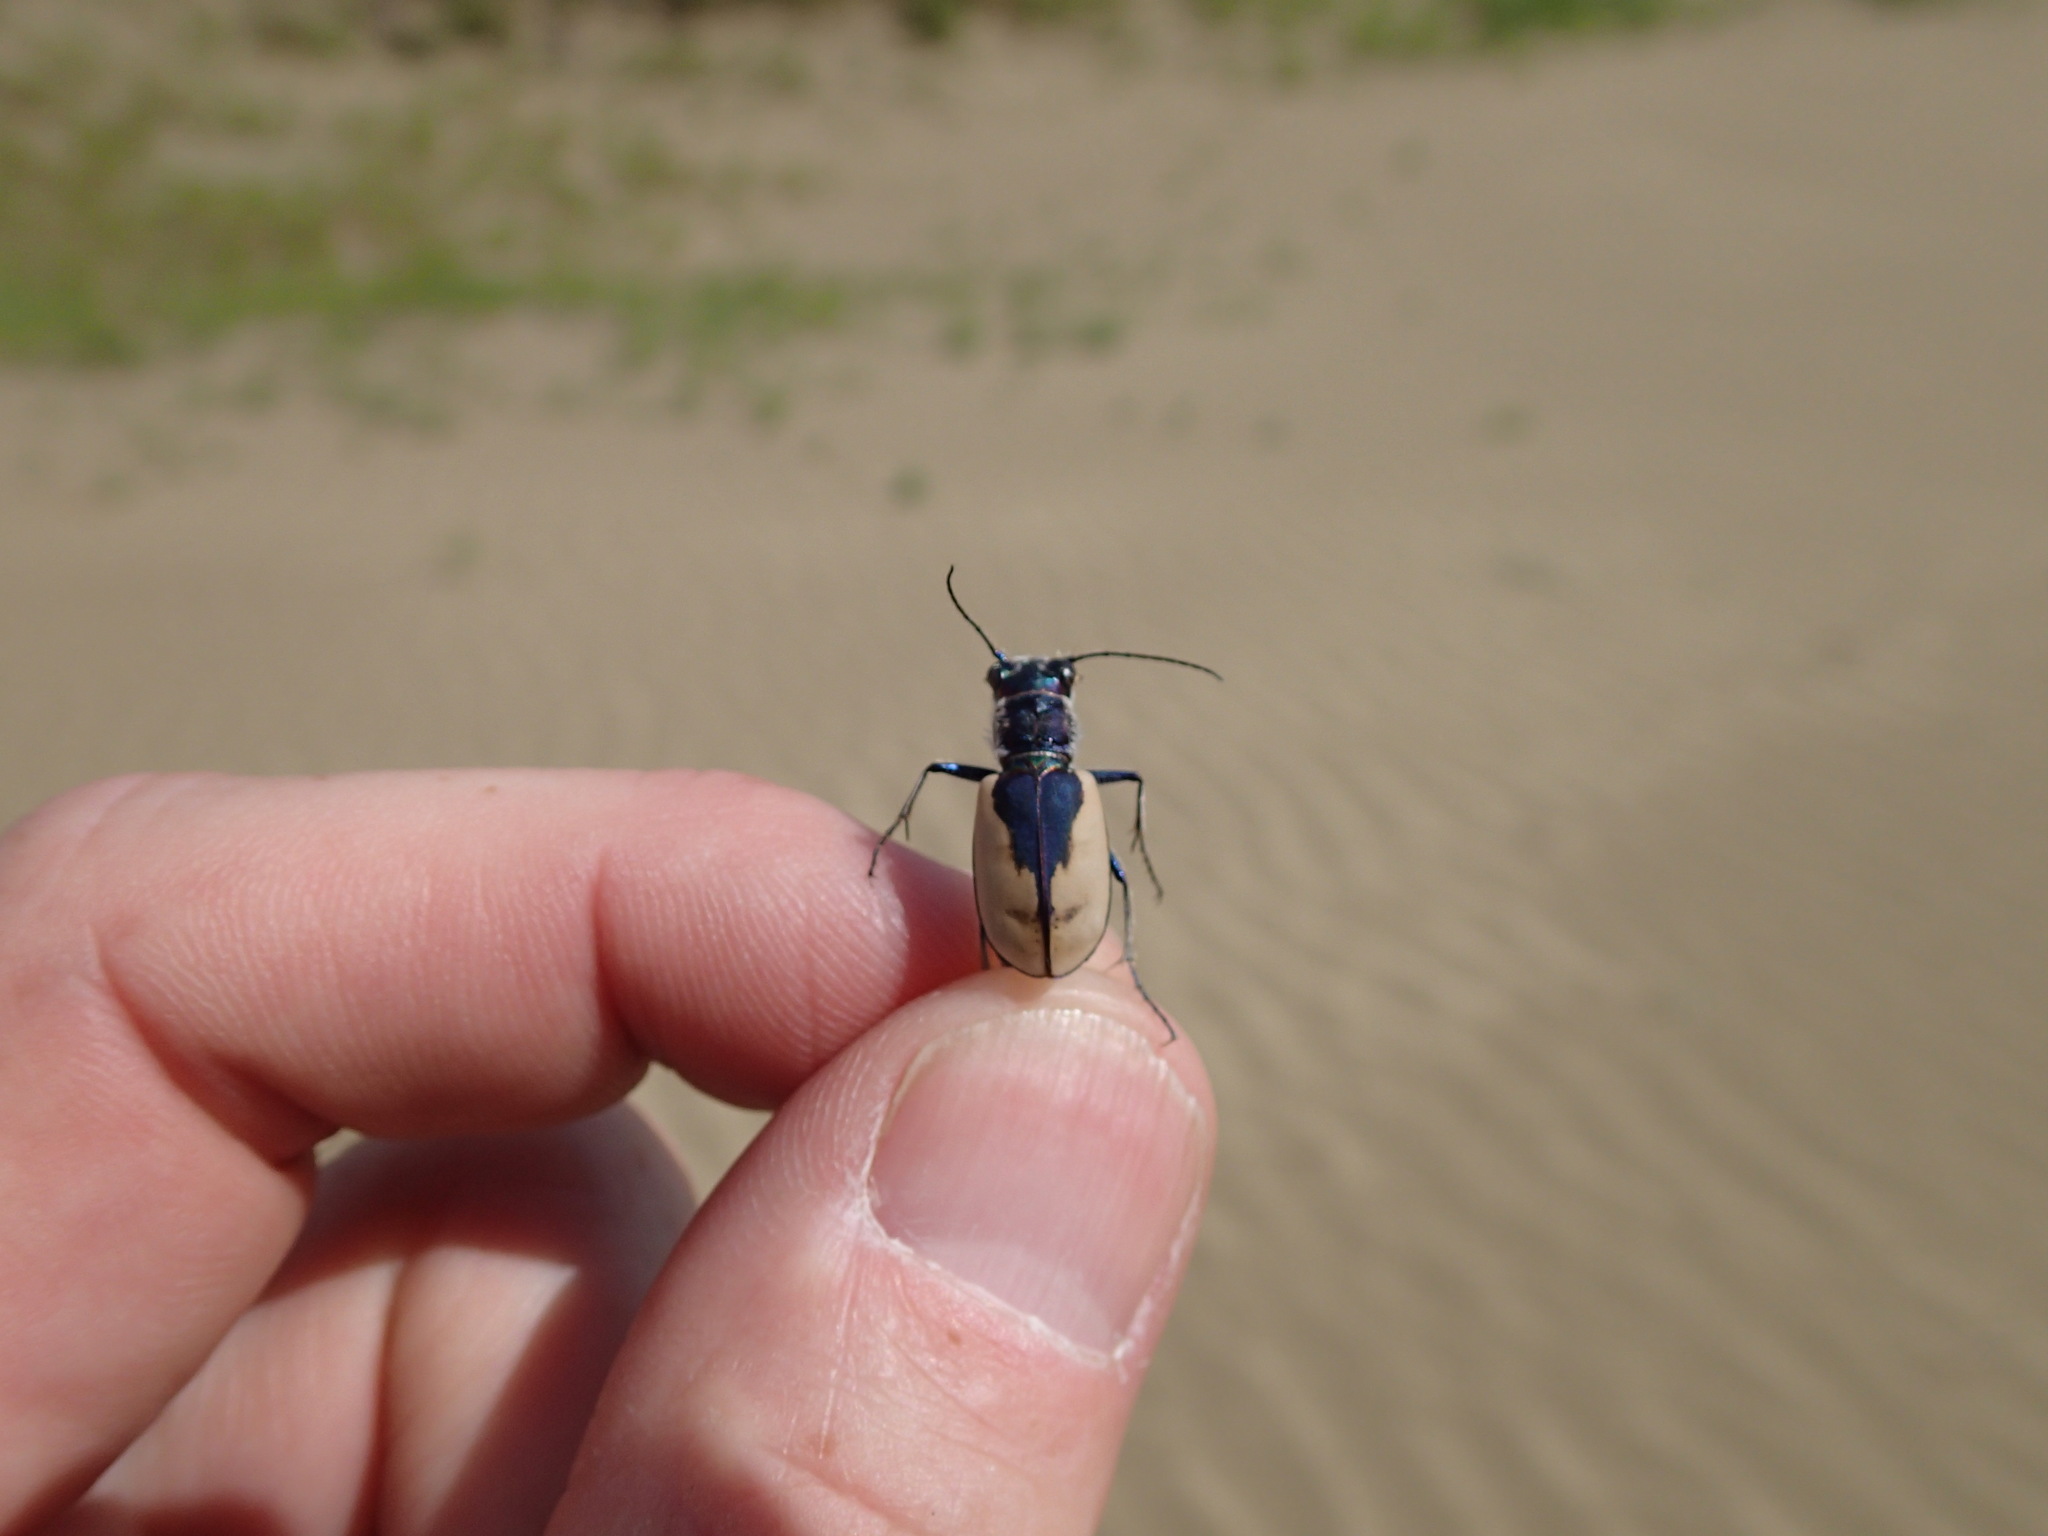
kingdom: Animalia
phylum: Arthropoda
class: Insecta
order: Coleoptera
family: Carabidae
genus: Cicindela
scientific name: Cicindela formosa
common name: Big sand tiger beetle
